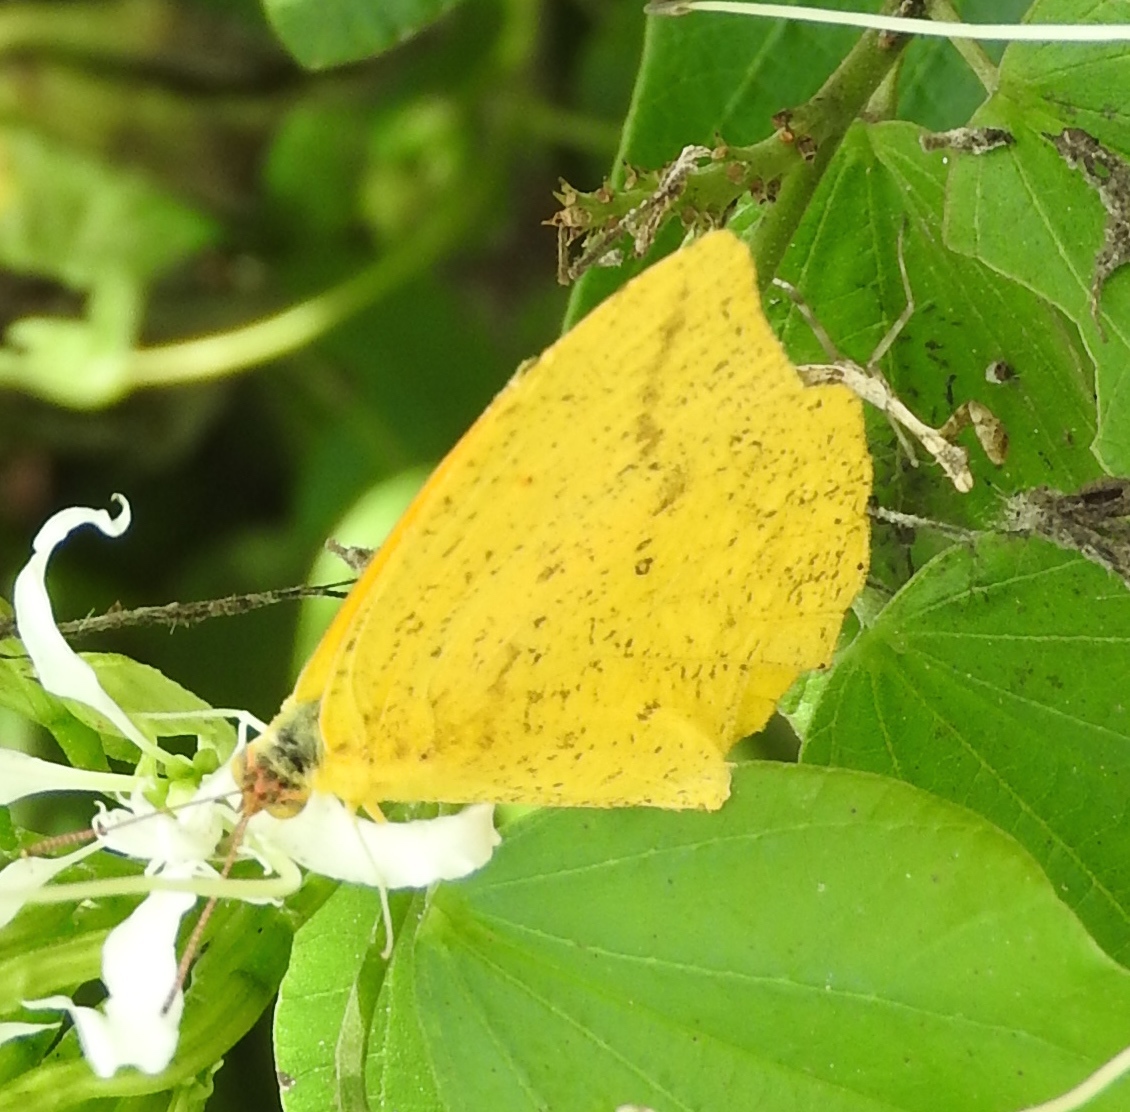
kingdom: Animalia
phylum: Arthropoda
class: Insecta
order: Lepidoptera
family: Pieridae
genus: Phoebis
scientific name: Phoebis agarithe
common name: Large orange sulphur
